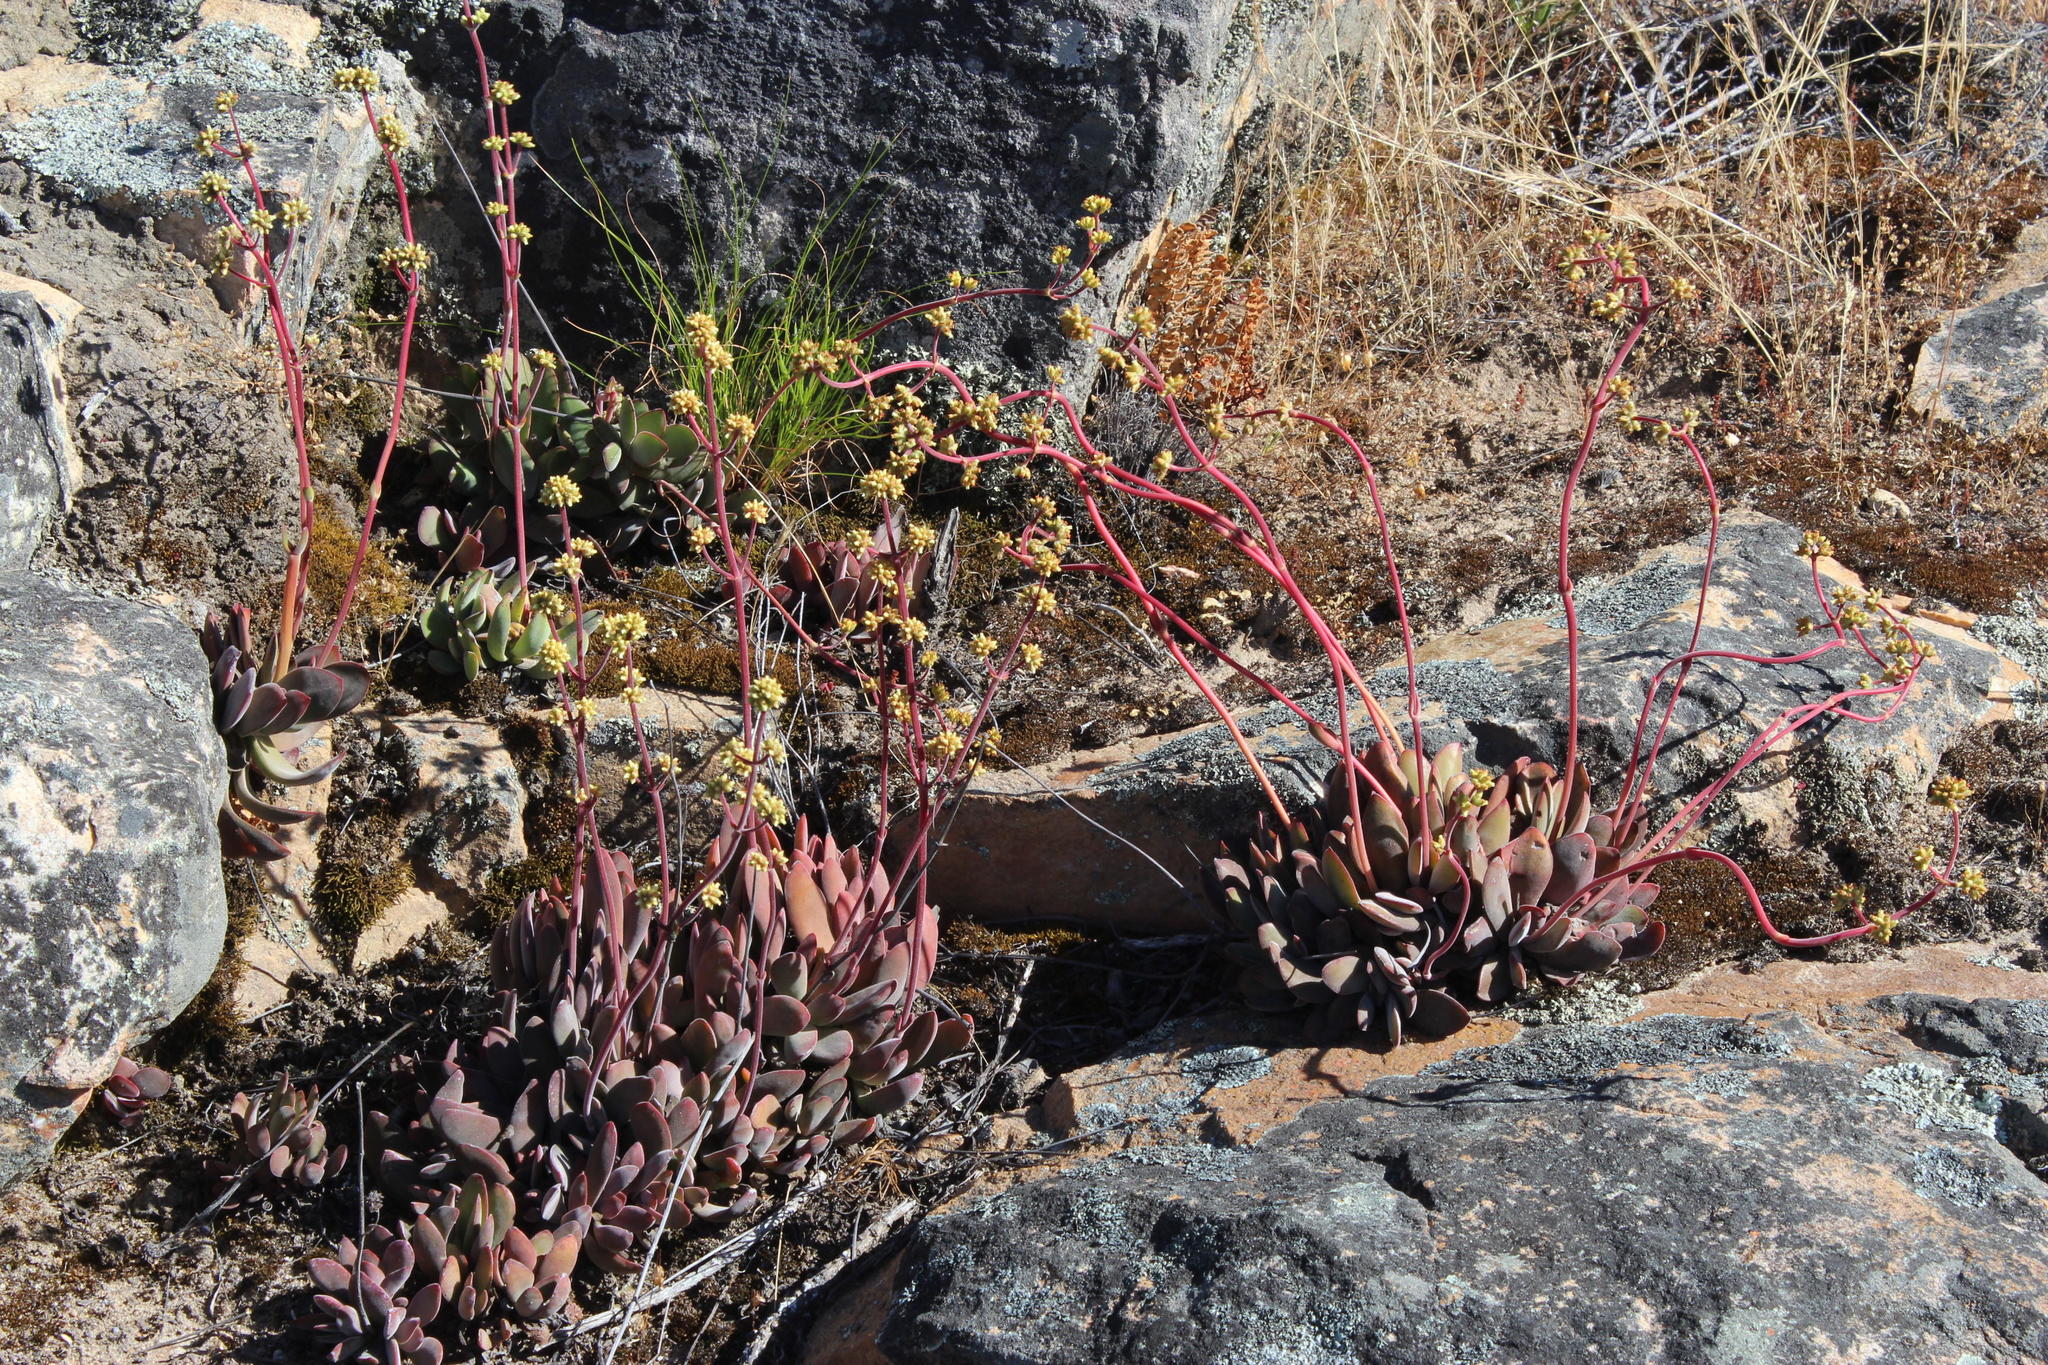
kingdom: Plantae
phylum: Tracheophyta
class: Magnoliopsida
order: Saxifragales
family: Crassulaceae
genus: Crassula
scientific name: Crassula atropurpurea
